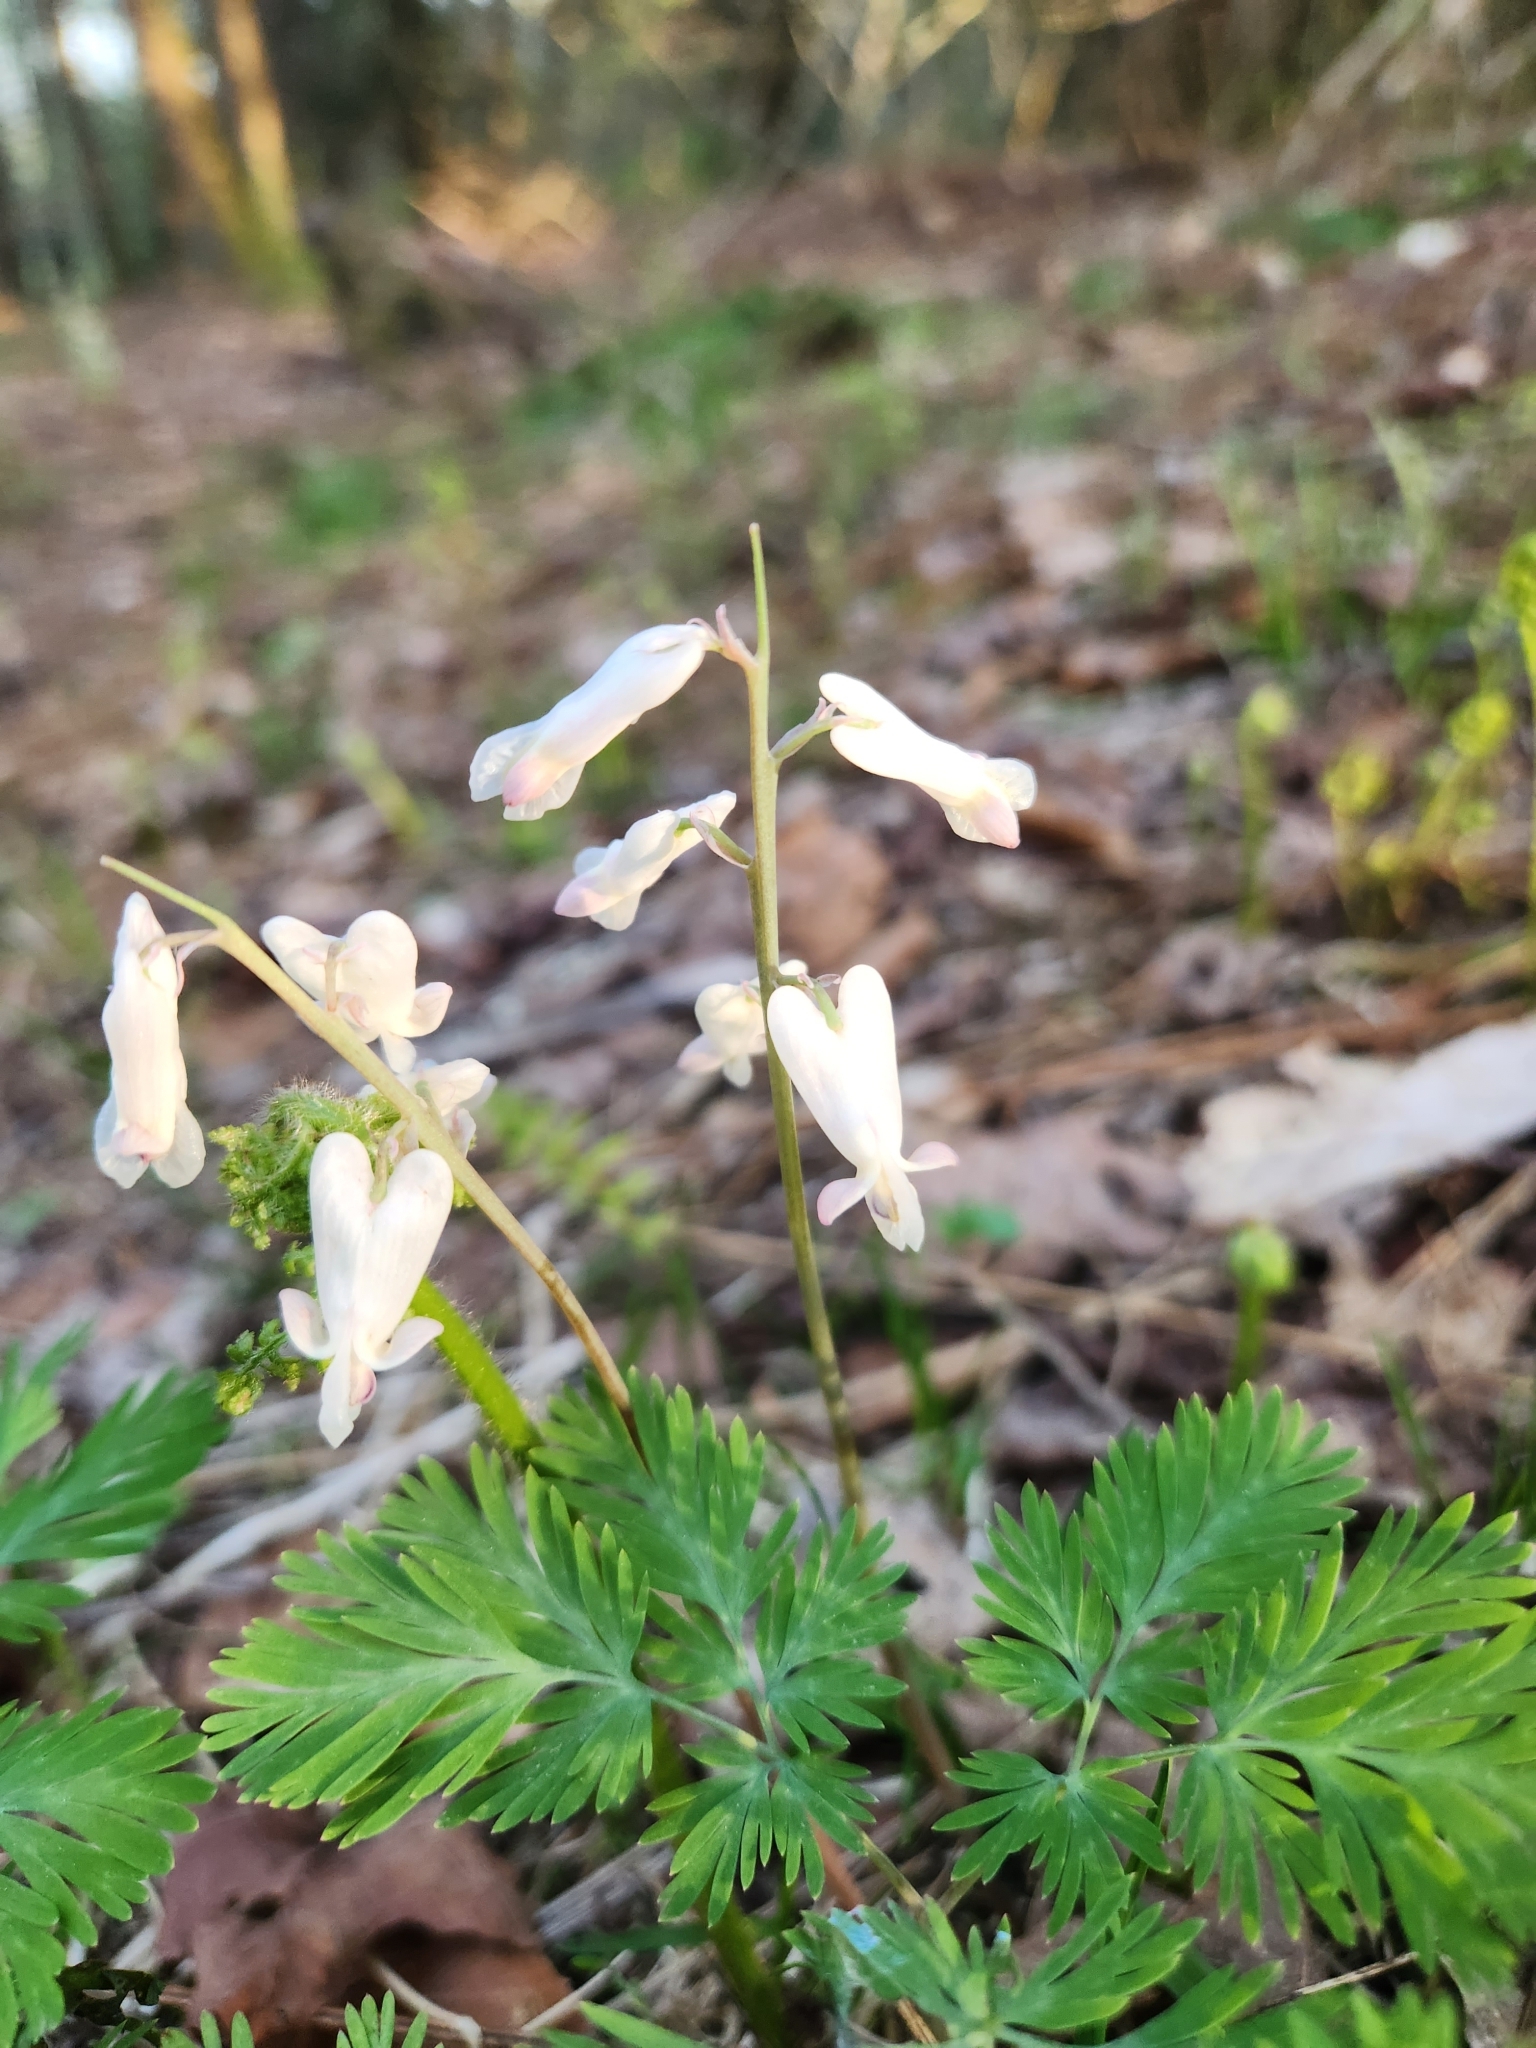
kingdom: Plantae
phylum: Tracheophyta
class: Magnoliopsida
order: Ranunculales
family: Papaveraceae
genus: Dicentra
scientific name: Dicentra canadensis
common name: Squirrel-corn
